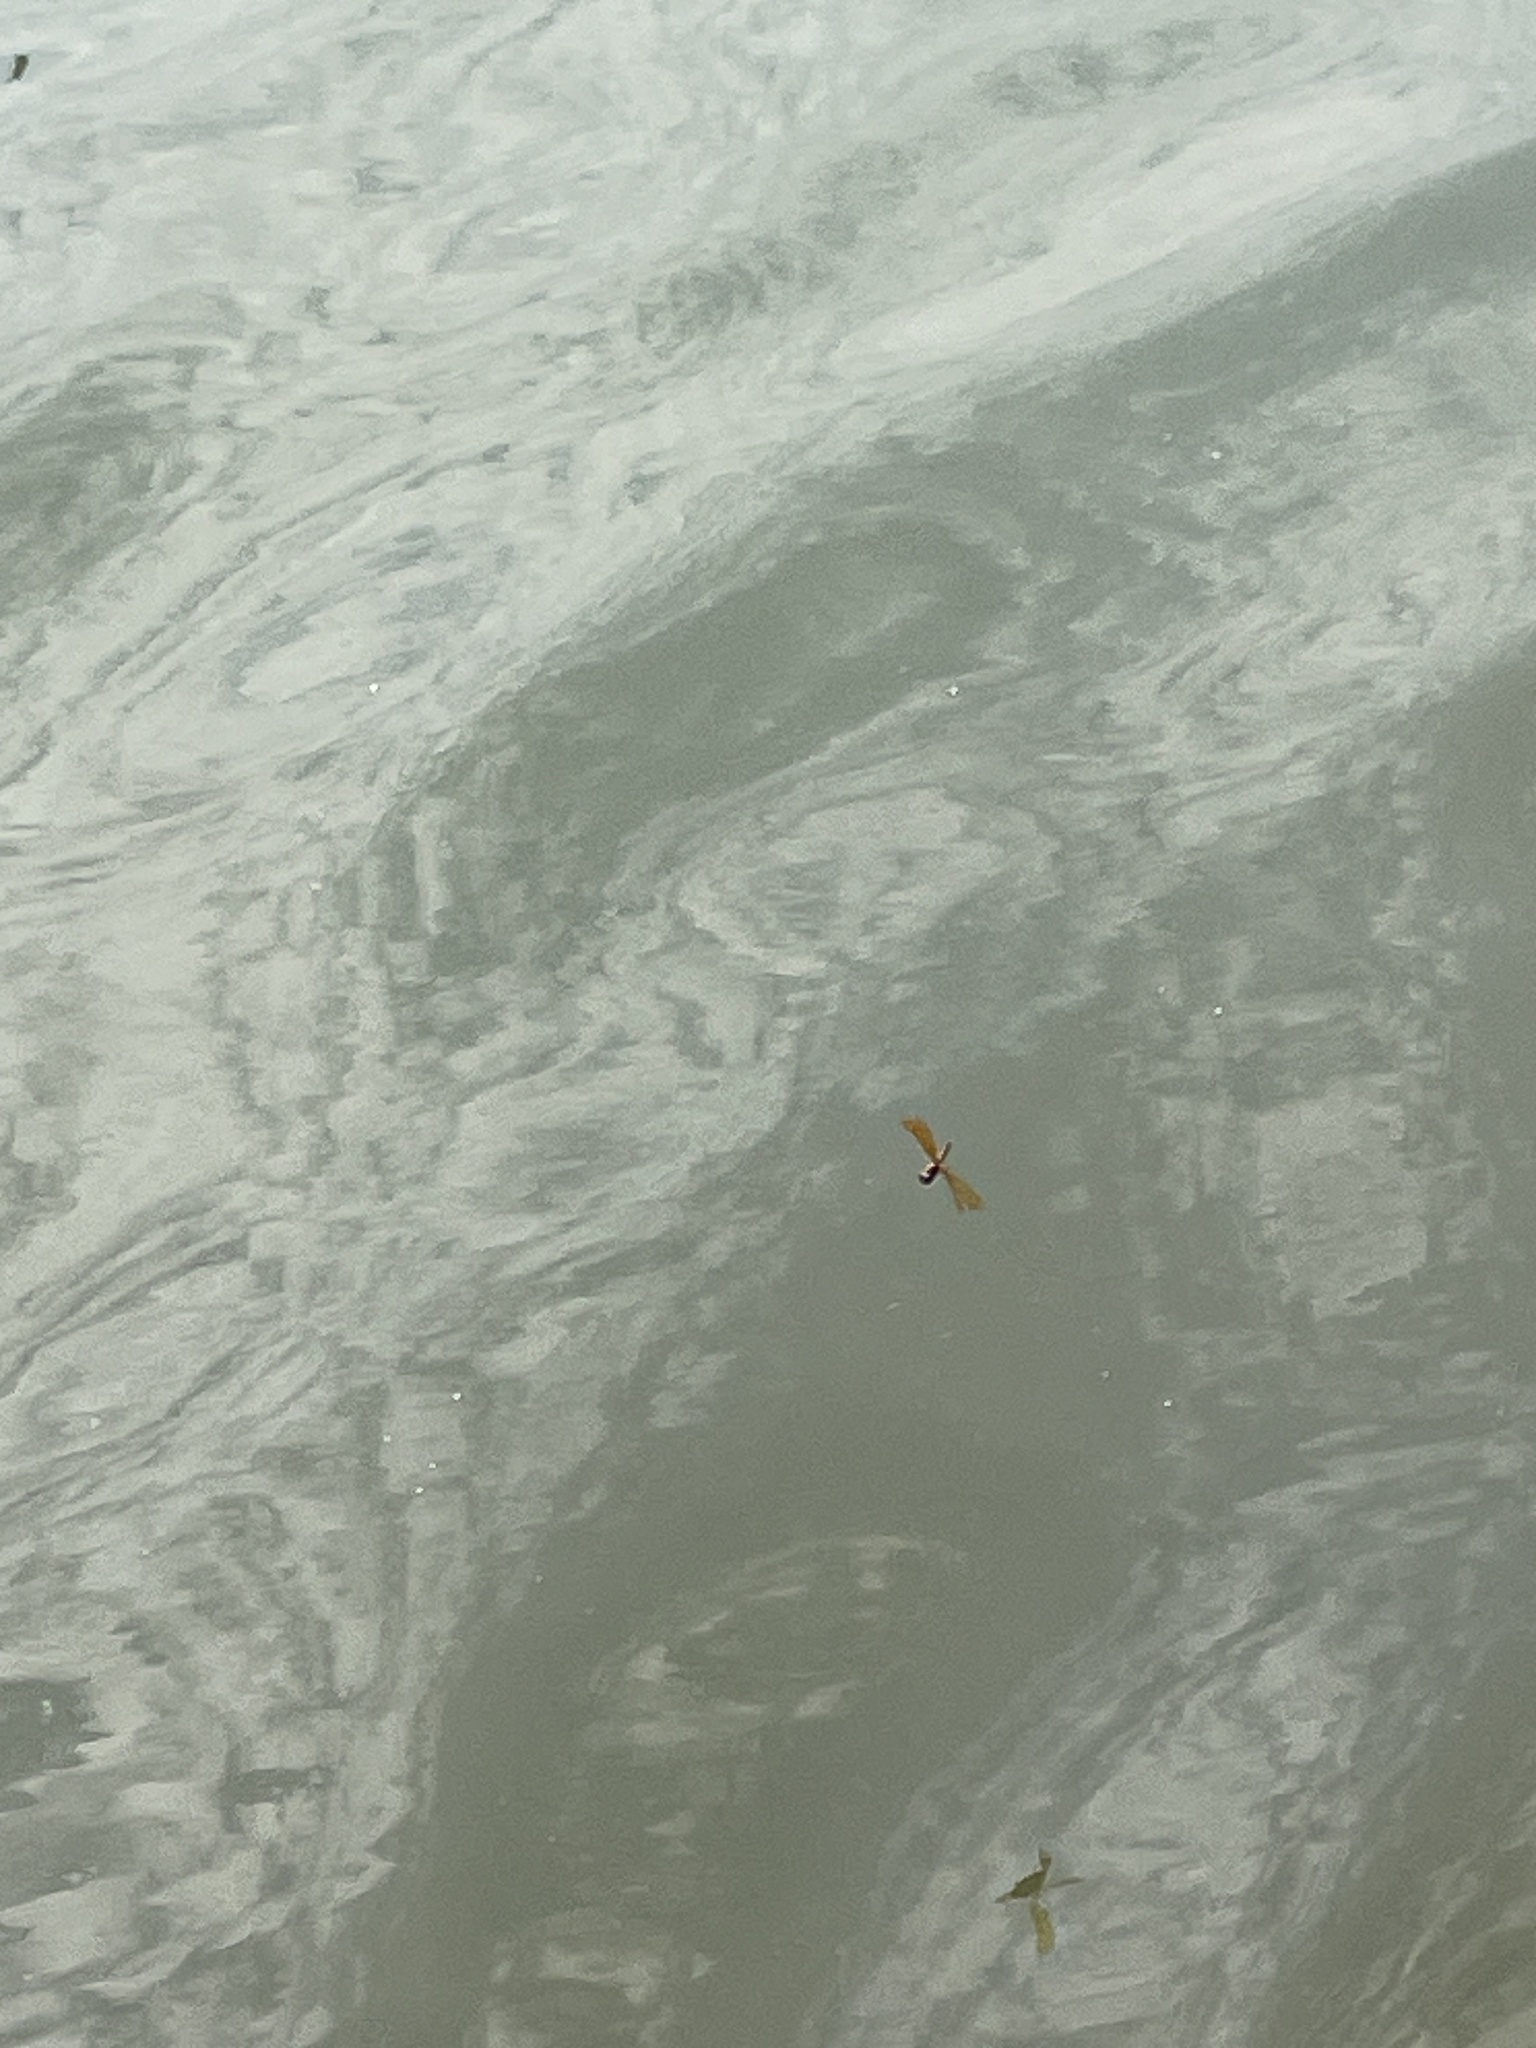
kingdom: Animalia
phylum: Arthropoda
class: Insecta
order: Odonata
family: Libellulidae
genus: Perithemis
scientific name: Perithemis tenera
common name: Eastern amberwing
